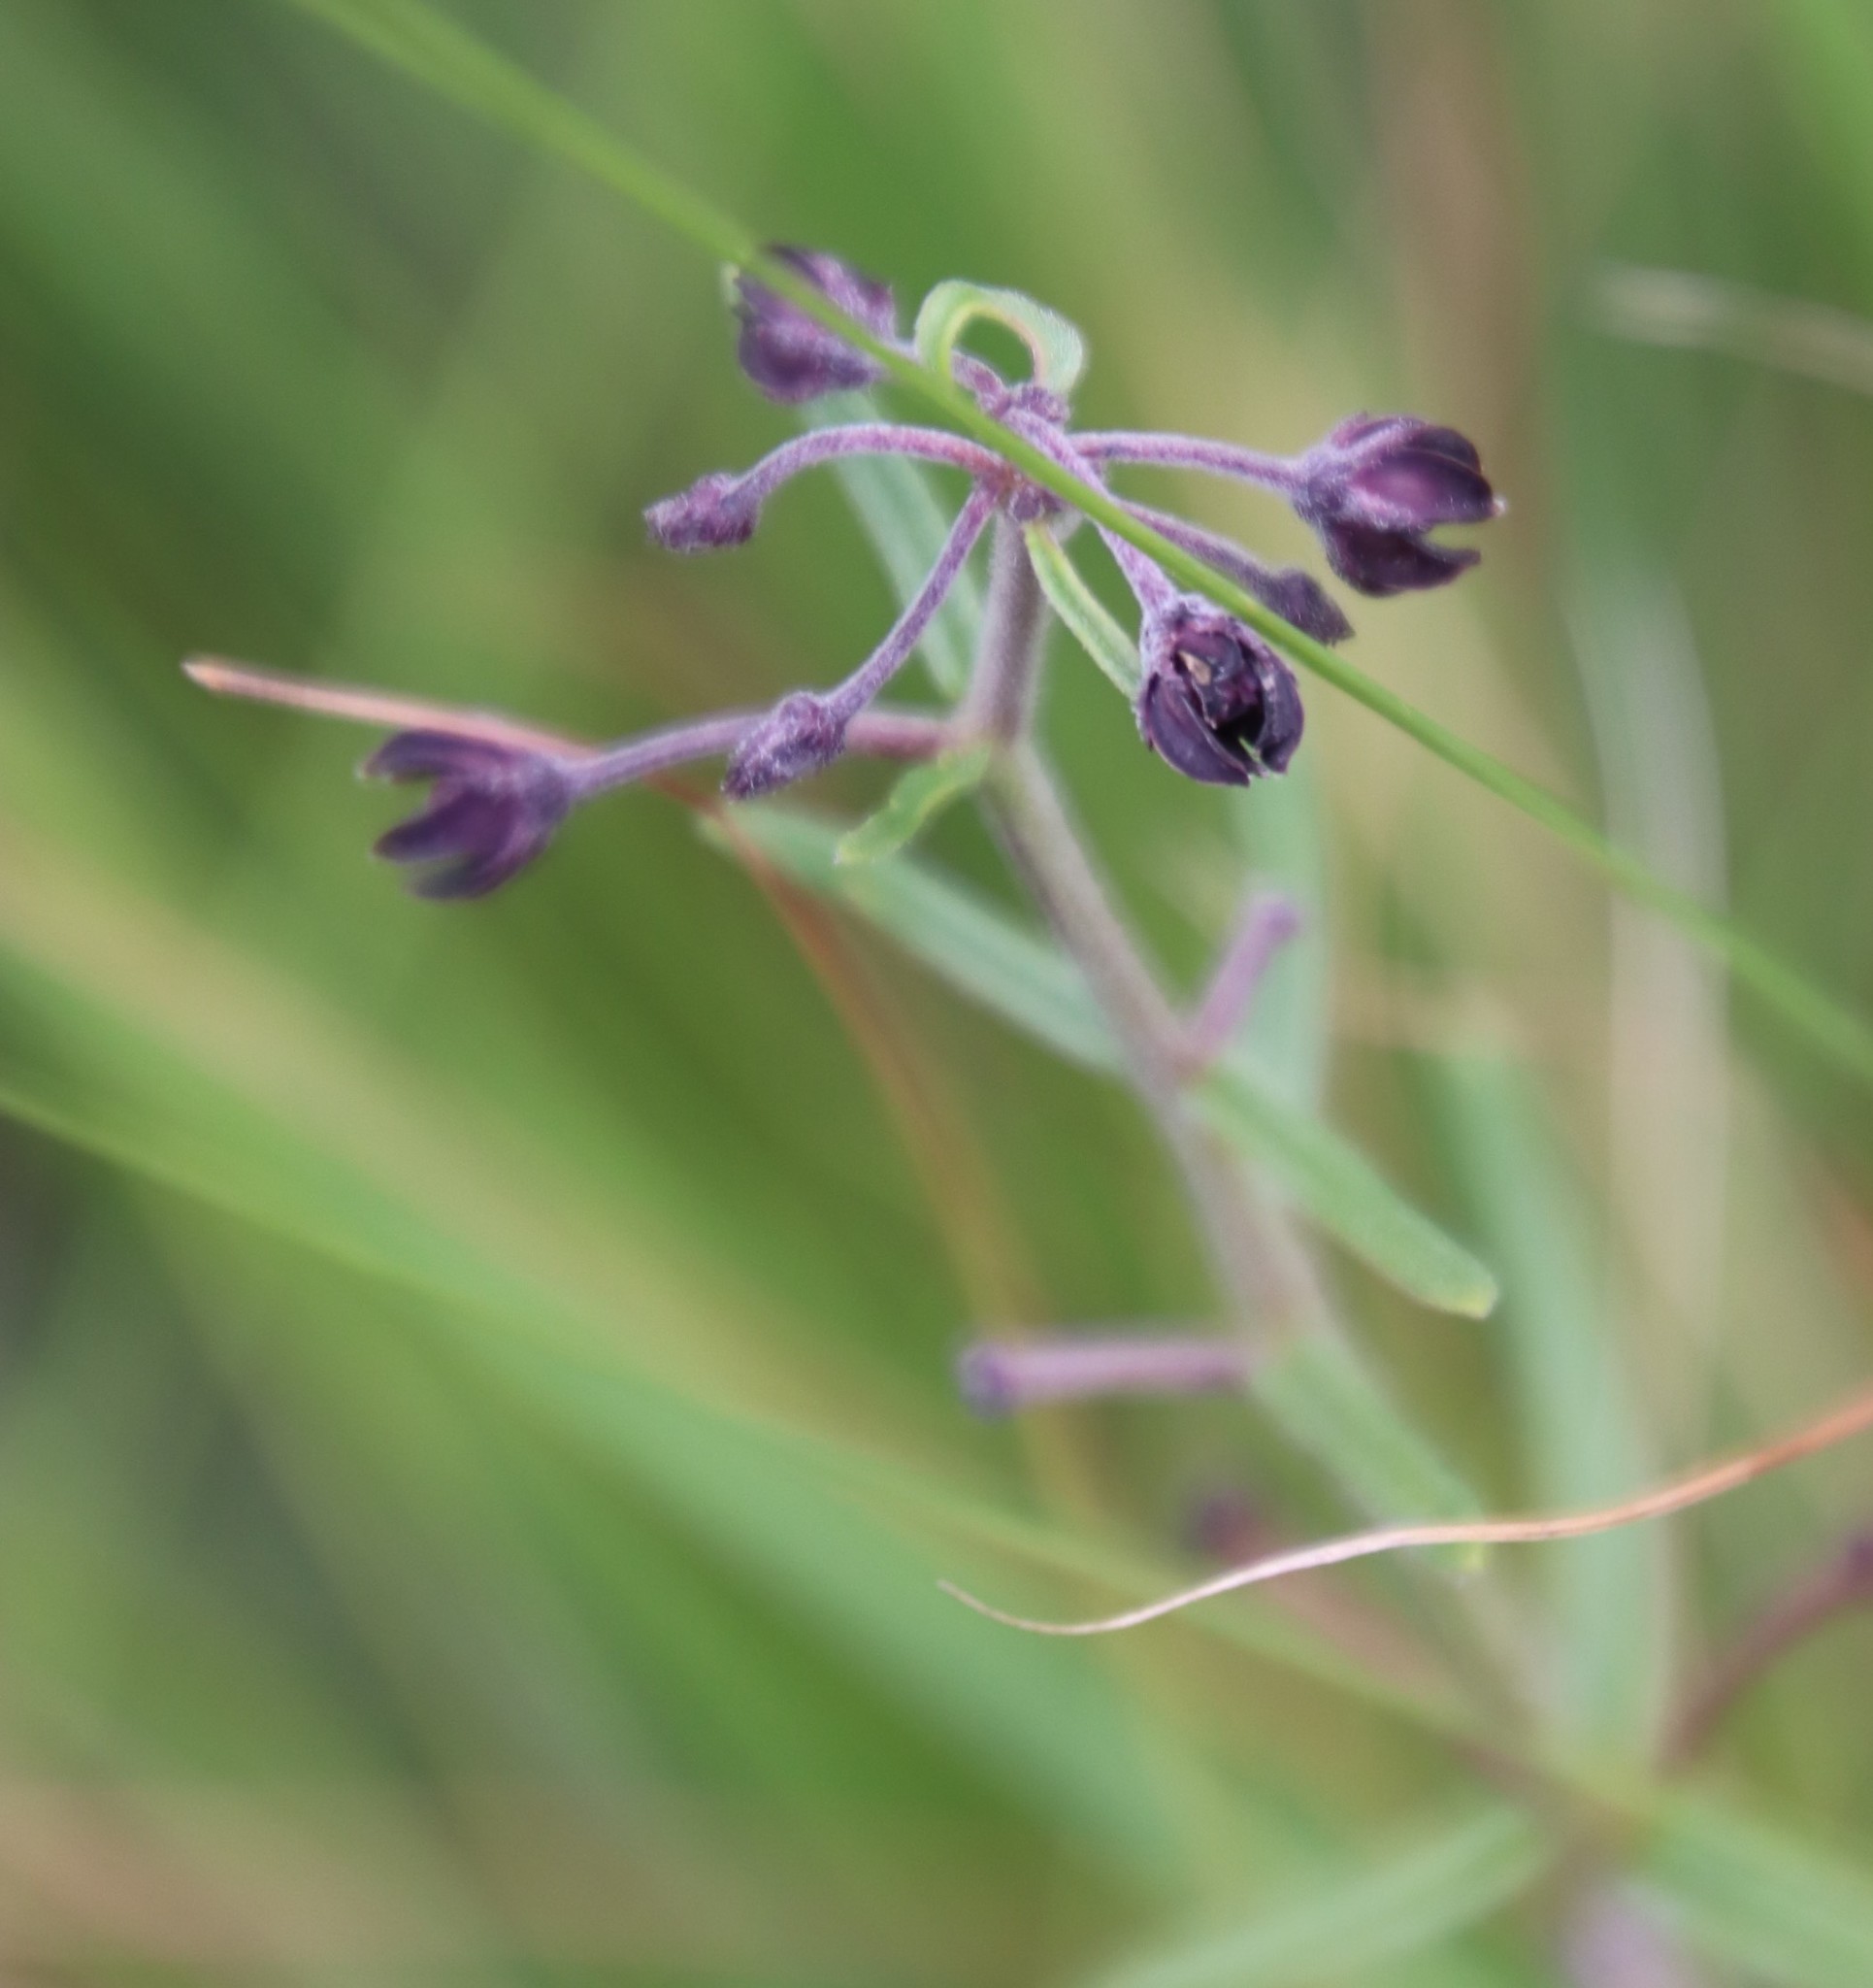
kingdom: Plantae
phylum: Tracheophyta
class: Magnoliopsida
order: Gentianales
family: Apocynaceae
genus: Schizoglossum
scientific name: Schizoglossum bidens
